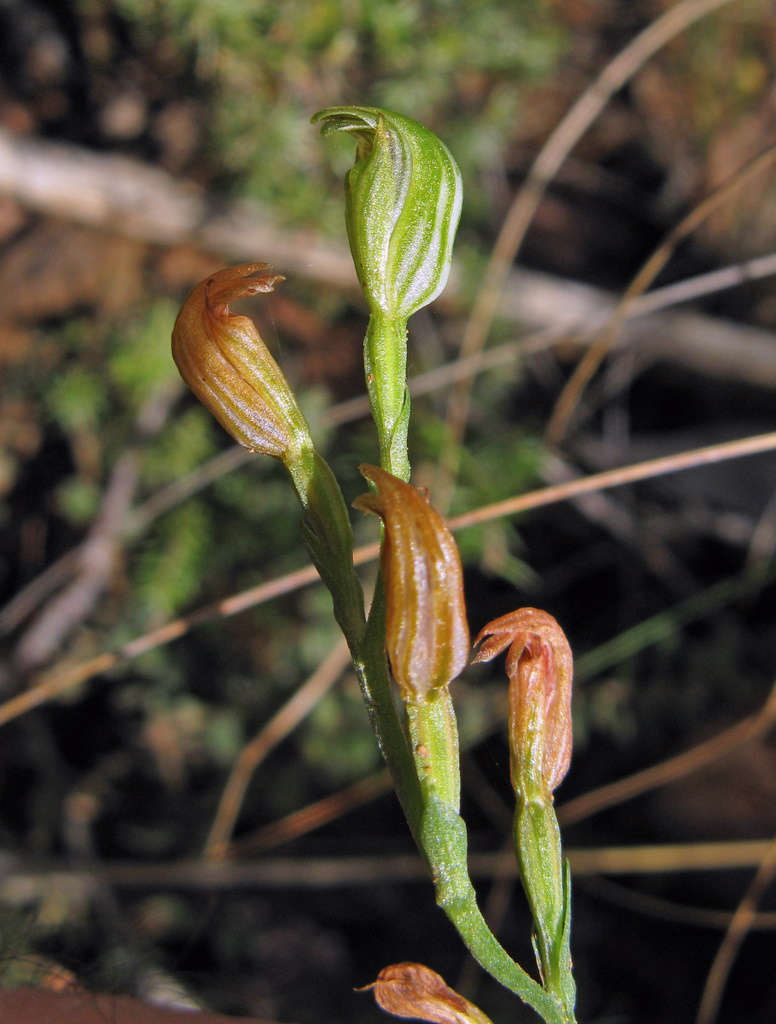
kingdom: Plantae
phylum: Tracheophyta
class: Liliopsida
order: Asparagales
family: Orchidaceae
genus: Pterostylis
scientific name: Pterostylis parviflora
